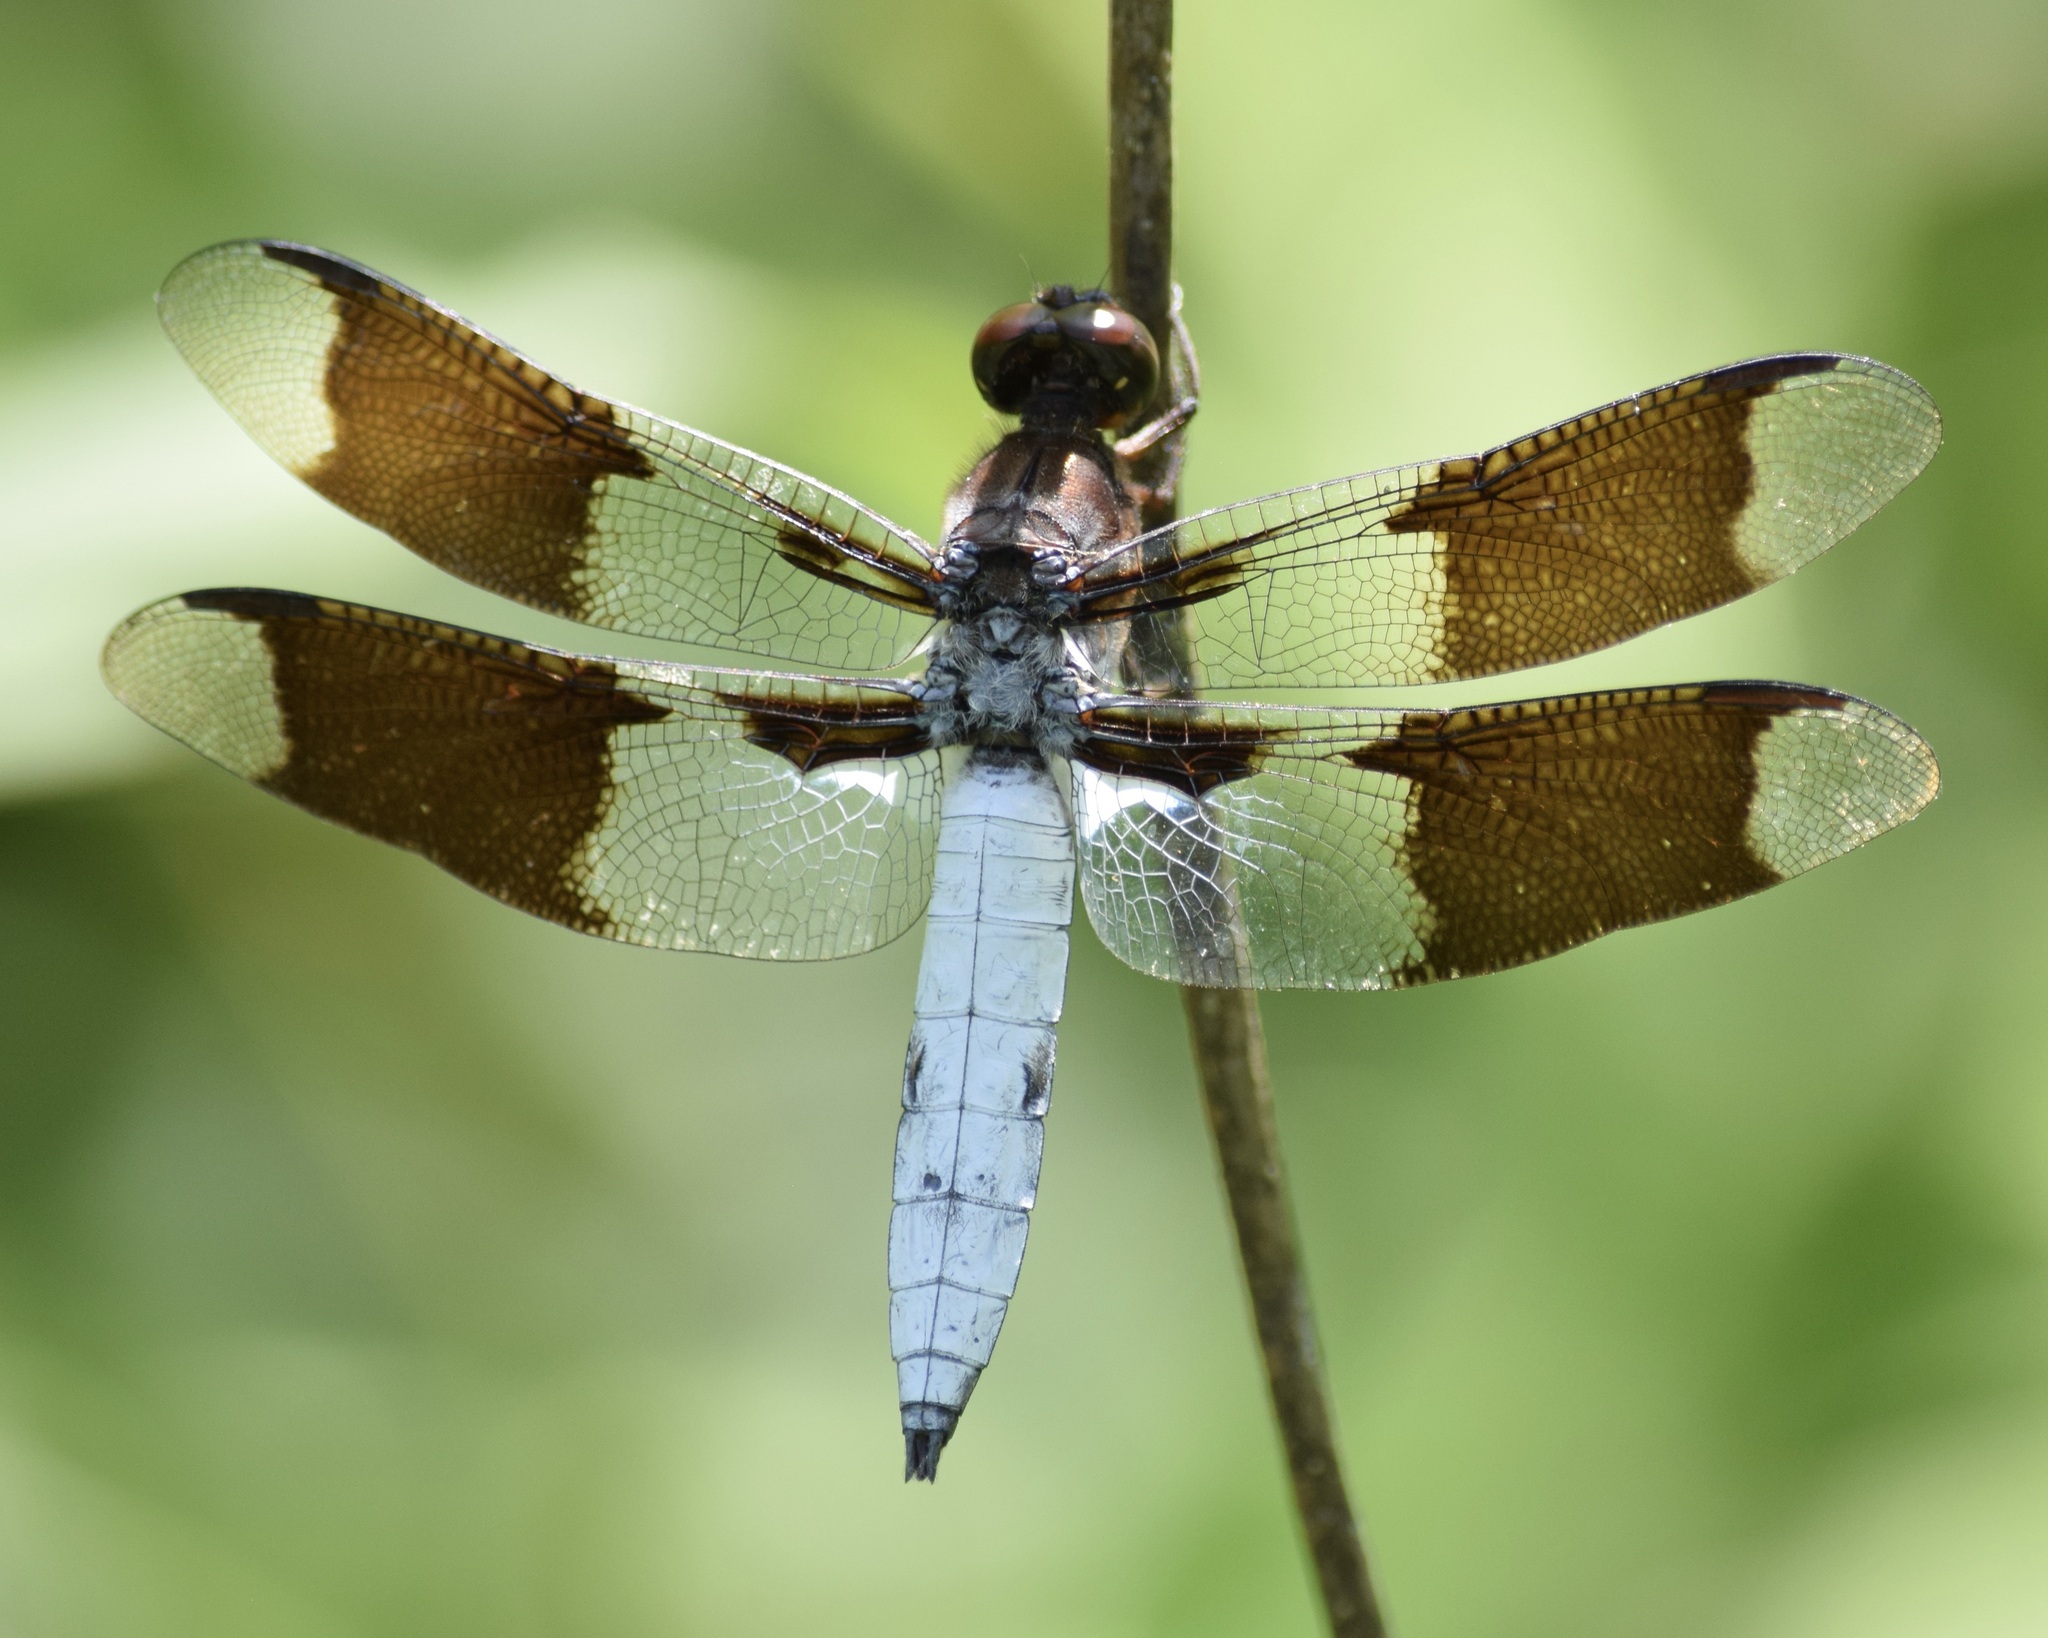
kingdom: Animalia
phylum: Arthropoda
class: Insecta
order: Odonata
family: Libellulidae
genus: Plathemis
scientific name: Plathemis lydia
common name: Common whitetail
